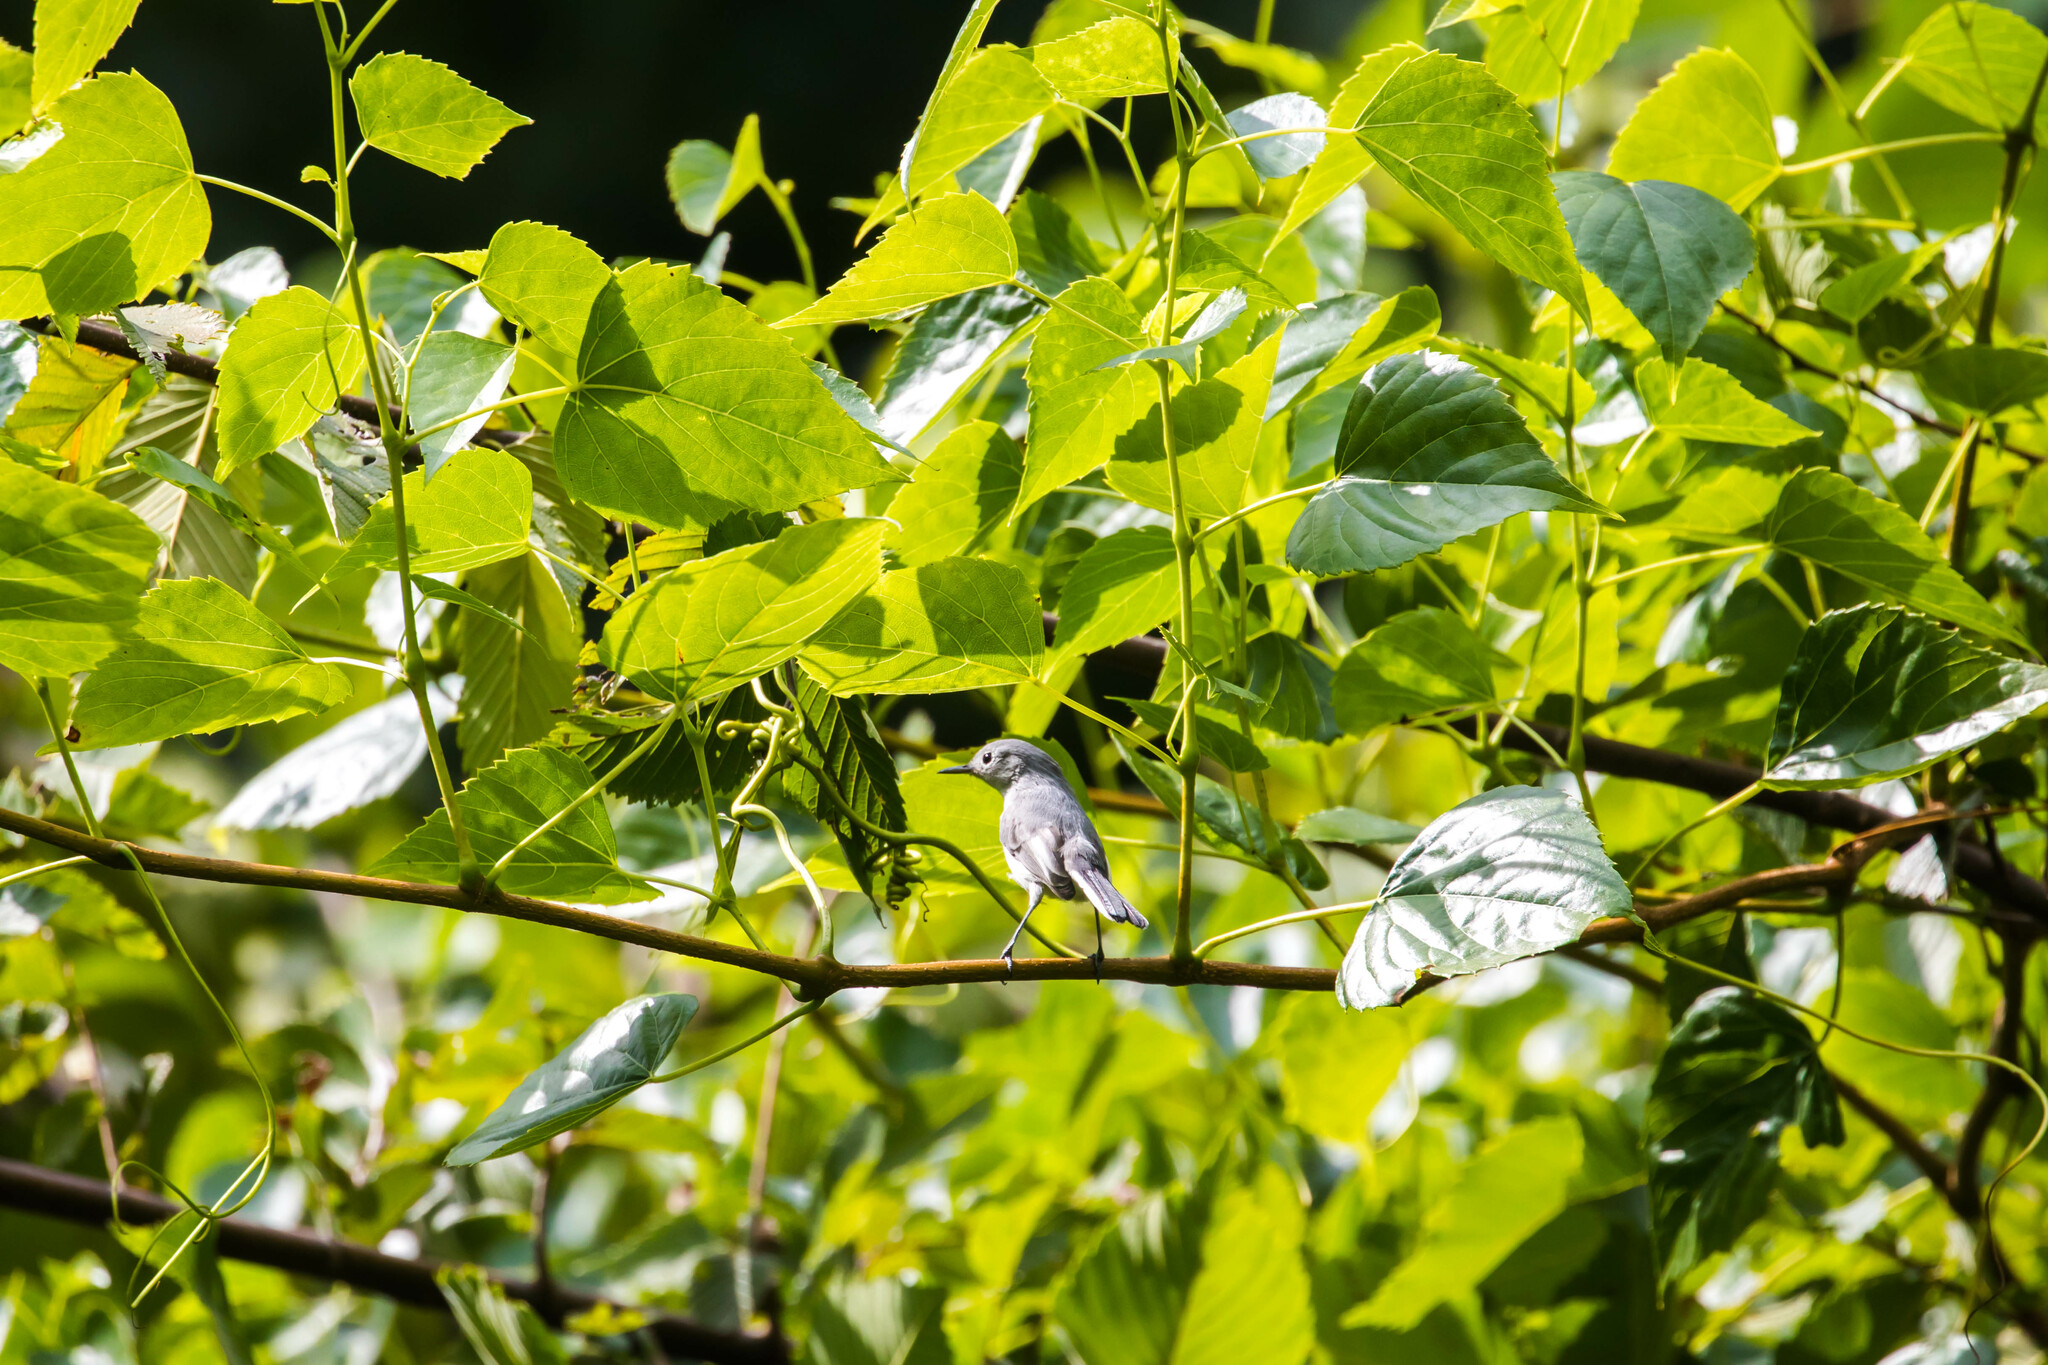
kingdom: Animalia
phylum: Chordata
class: Aves
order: Passeriformes
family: Polioptilidae
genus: Polioptila
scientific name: Polioptila caerulea
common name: Blue-gray gnatcatcher
